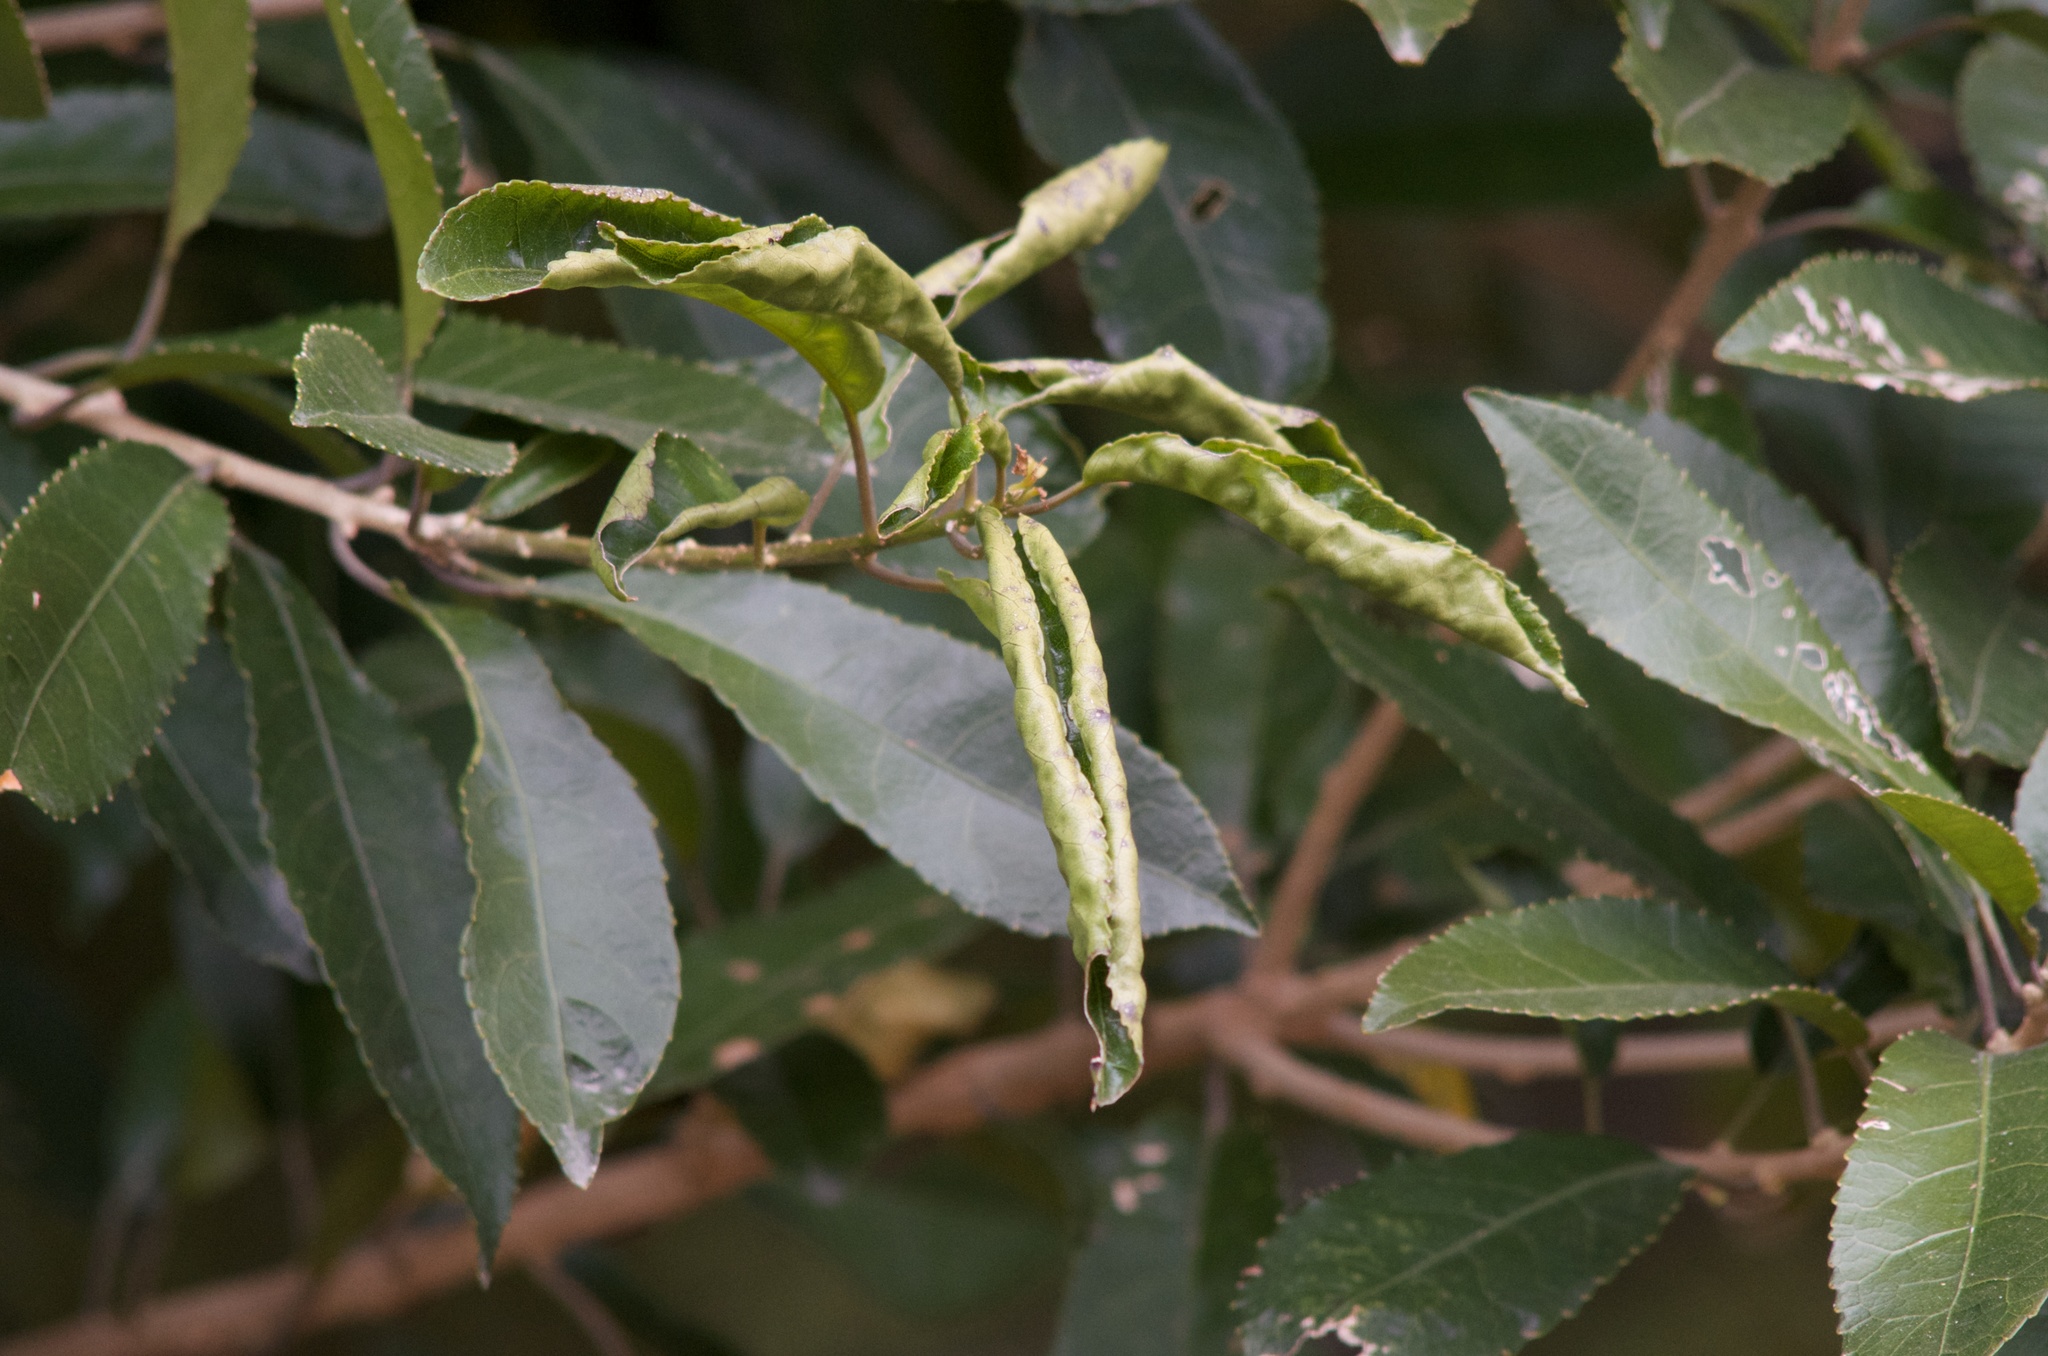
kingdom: Plantae
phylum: Tracheophyta
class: Magnoliopsida
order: Malpighiales
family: Violaceae
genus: Melicytus
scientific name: Melicytus ramiflorus
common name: Mahoe
